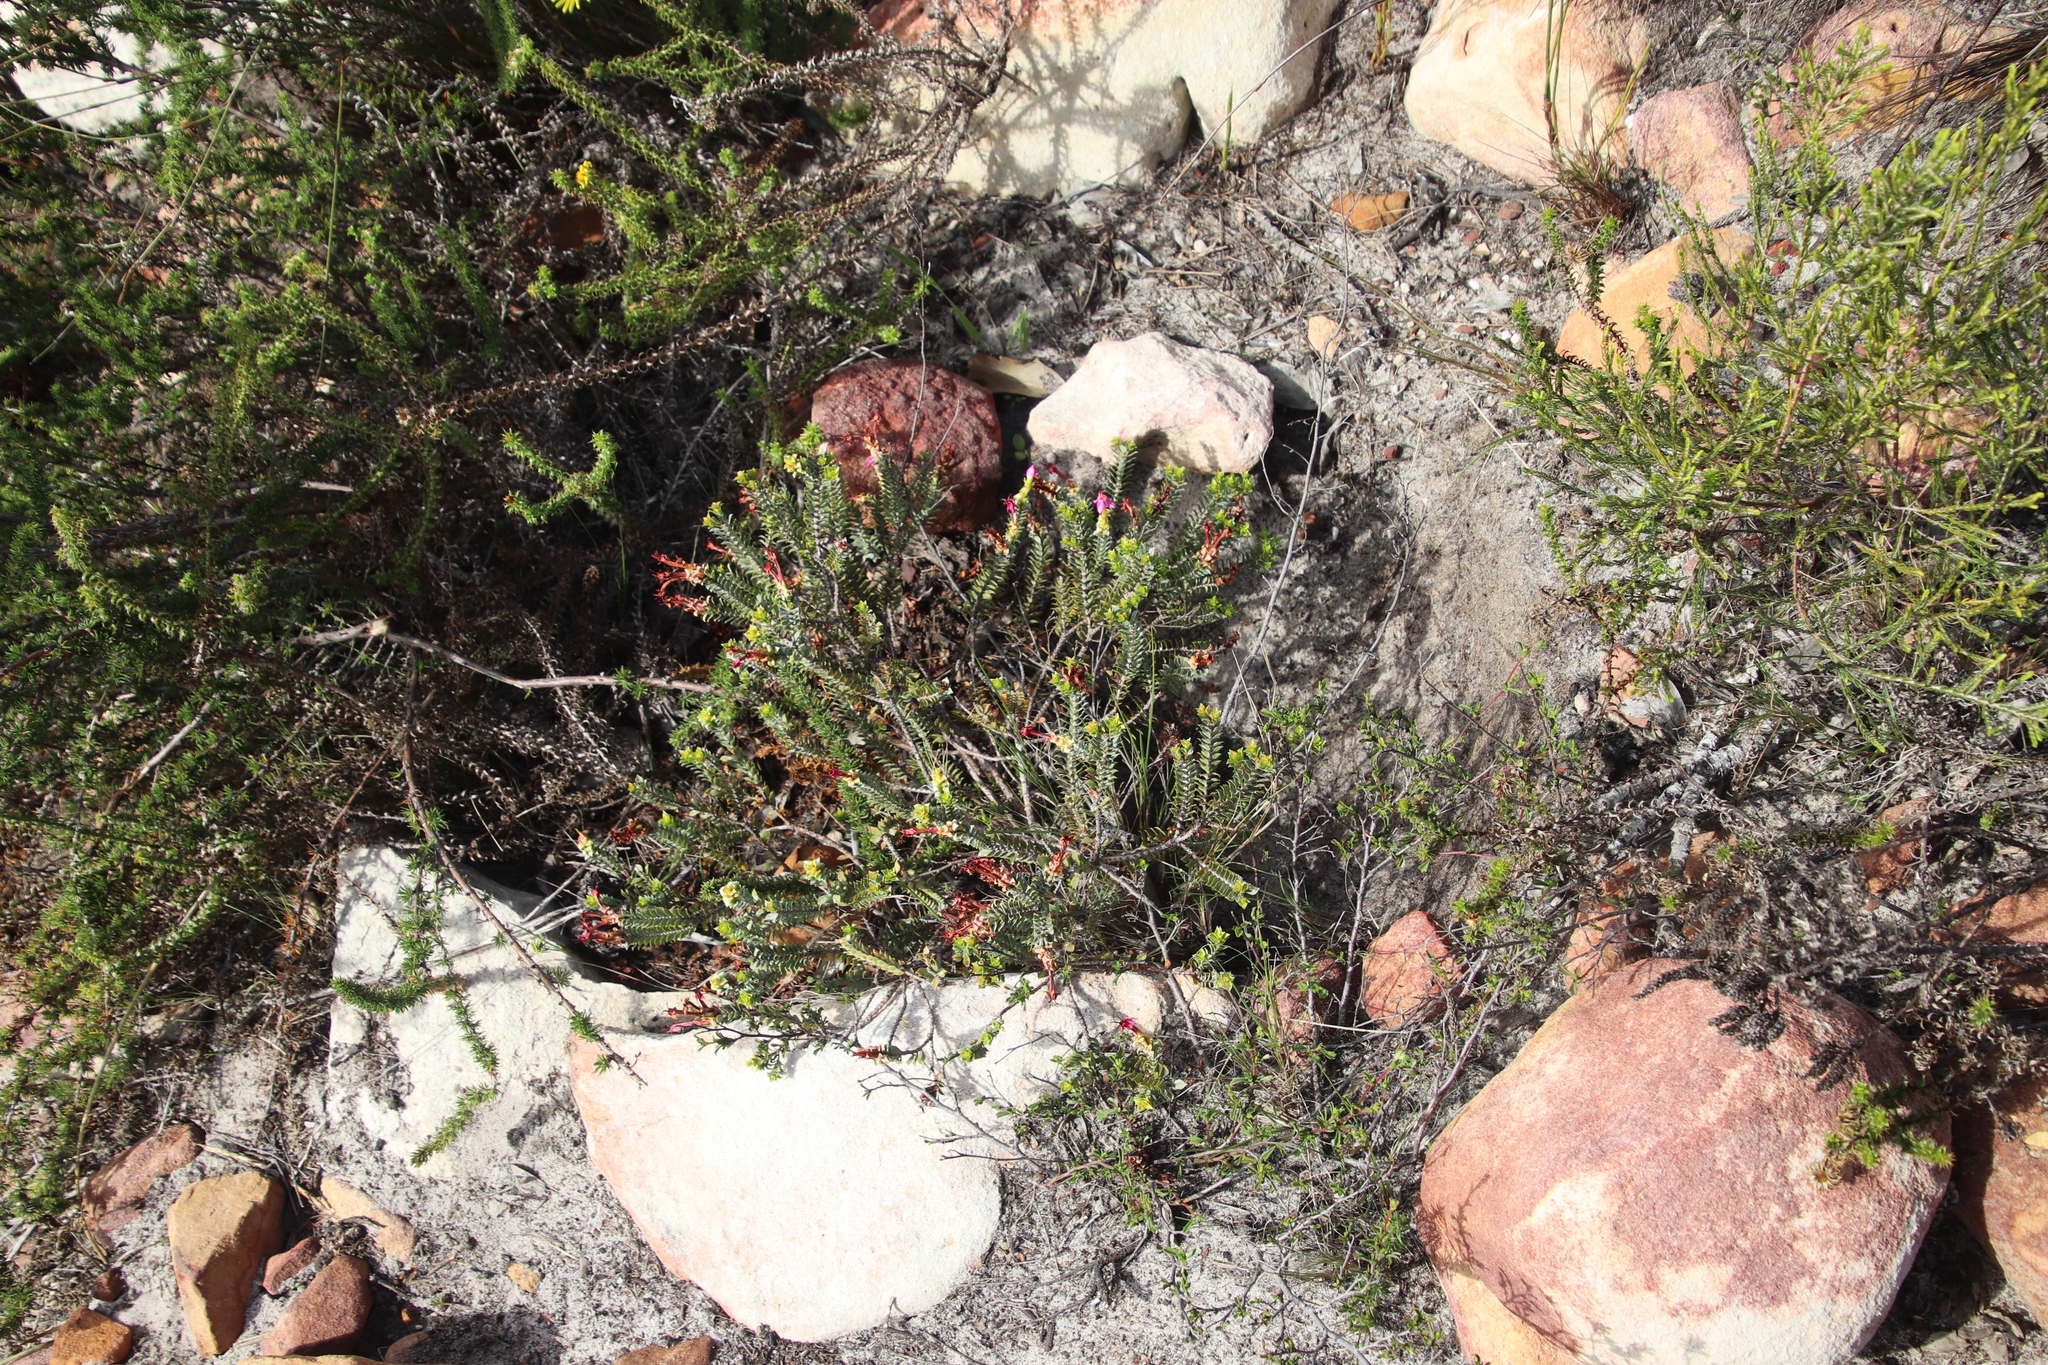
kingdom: Plantae
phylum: Tracheophyta
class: Magnoliopsida
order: Myrtales
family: Penaeaceae
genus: Saltera
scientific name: Saltera sarcocolla
